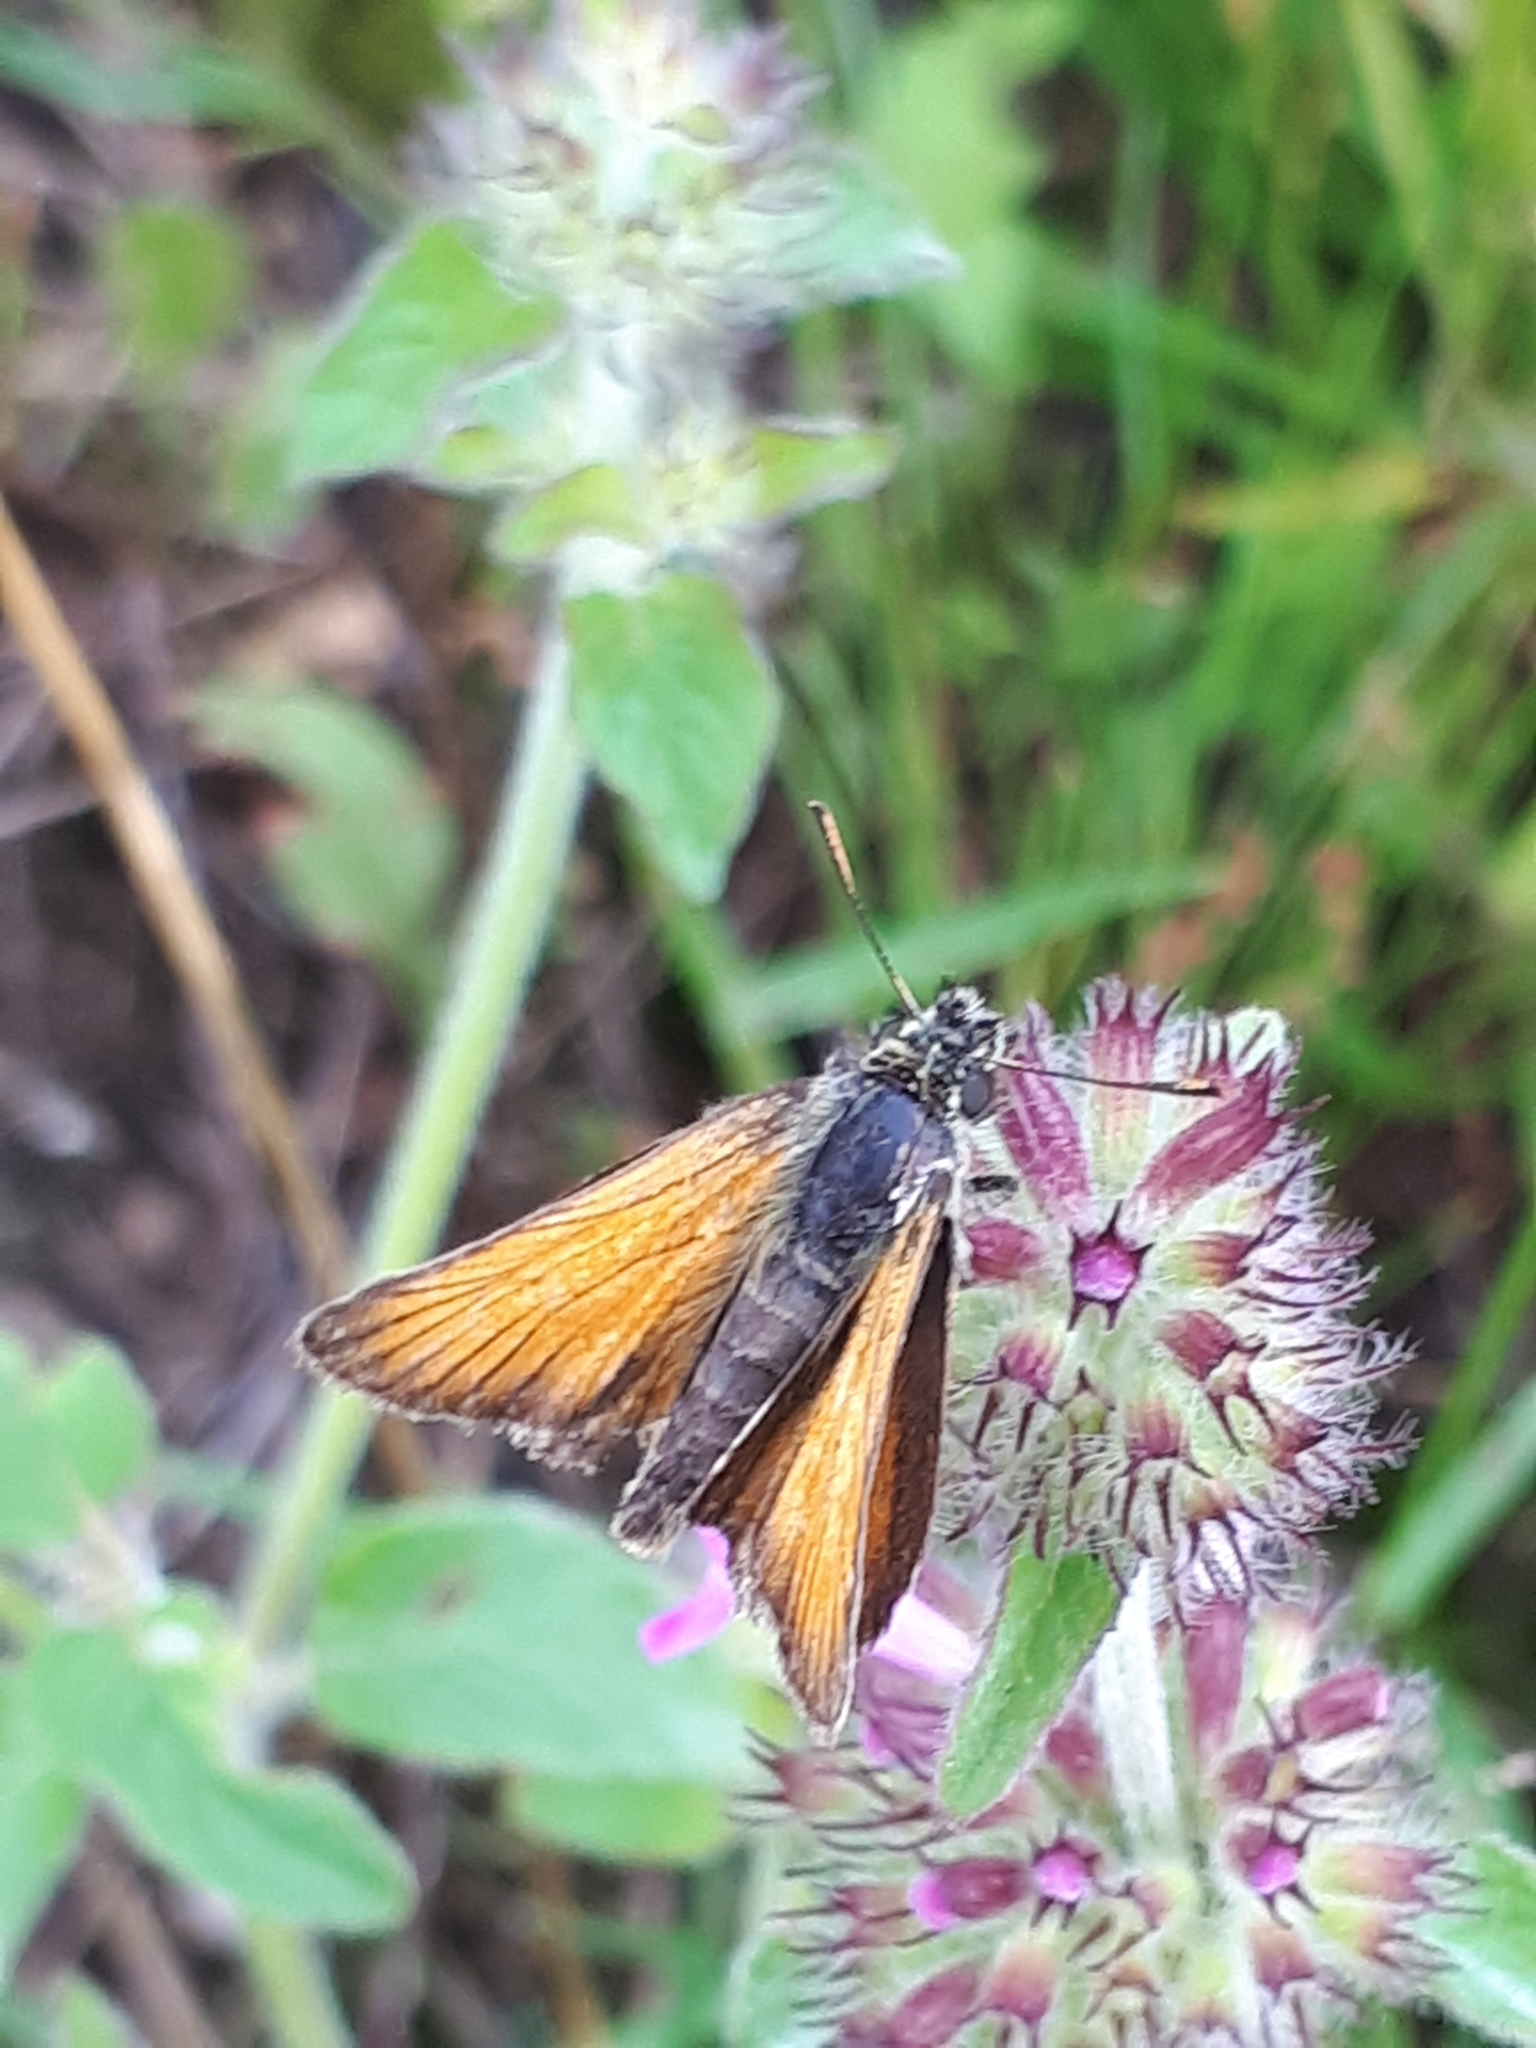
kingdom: Animalia
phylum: Arthropoda
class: Insecta
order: Lepidoptera
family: Hesperiidae
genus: Thymelicus
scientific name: Thymelicus sylvestris
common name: Small skipper
